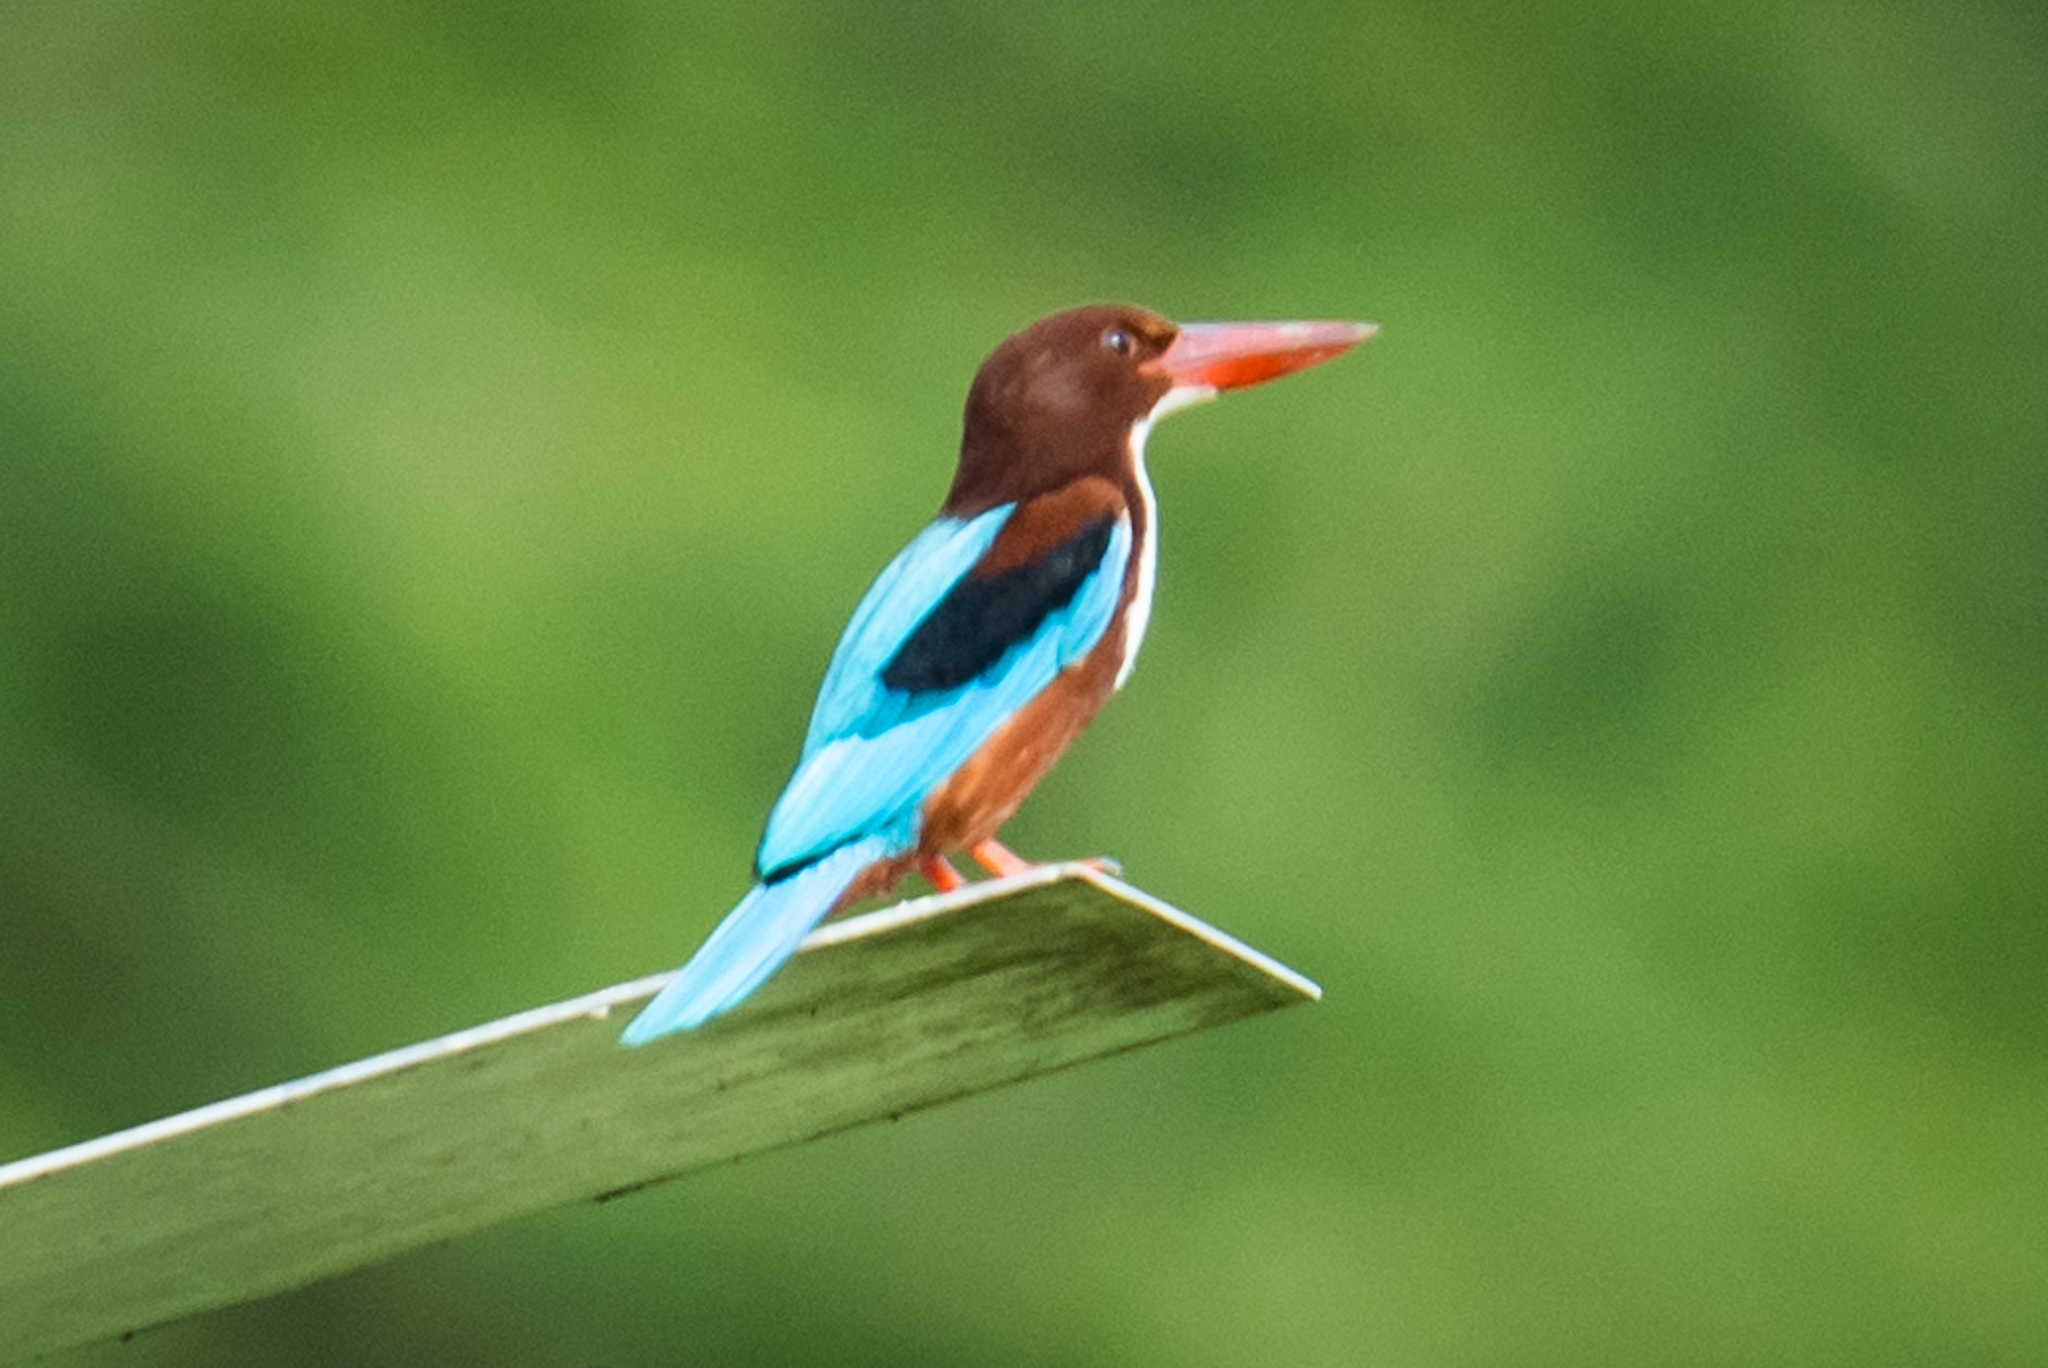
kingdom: Animalia
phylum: Chordata
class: Aves
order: Coraciiformes
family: Alcedinidae
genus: Halcyon
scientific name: Halcyon smyrnensis
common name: White-throated kingfisher
